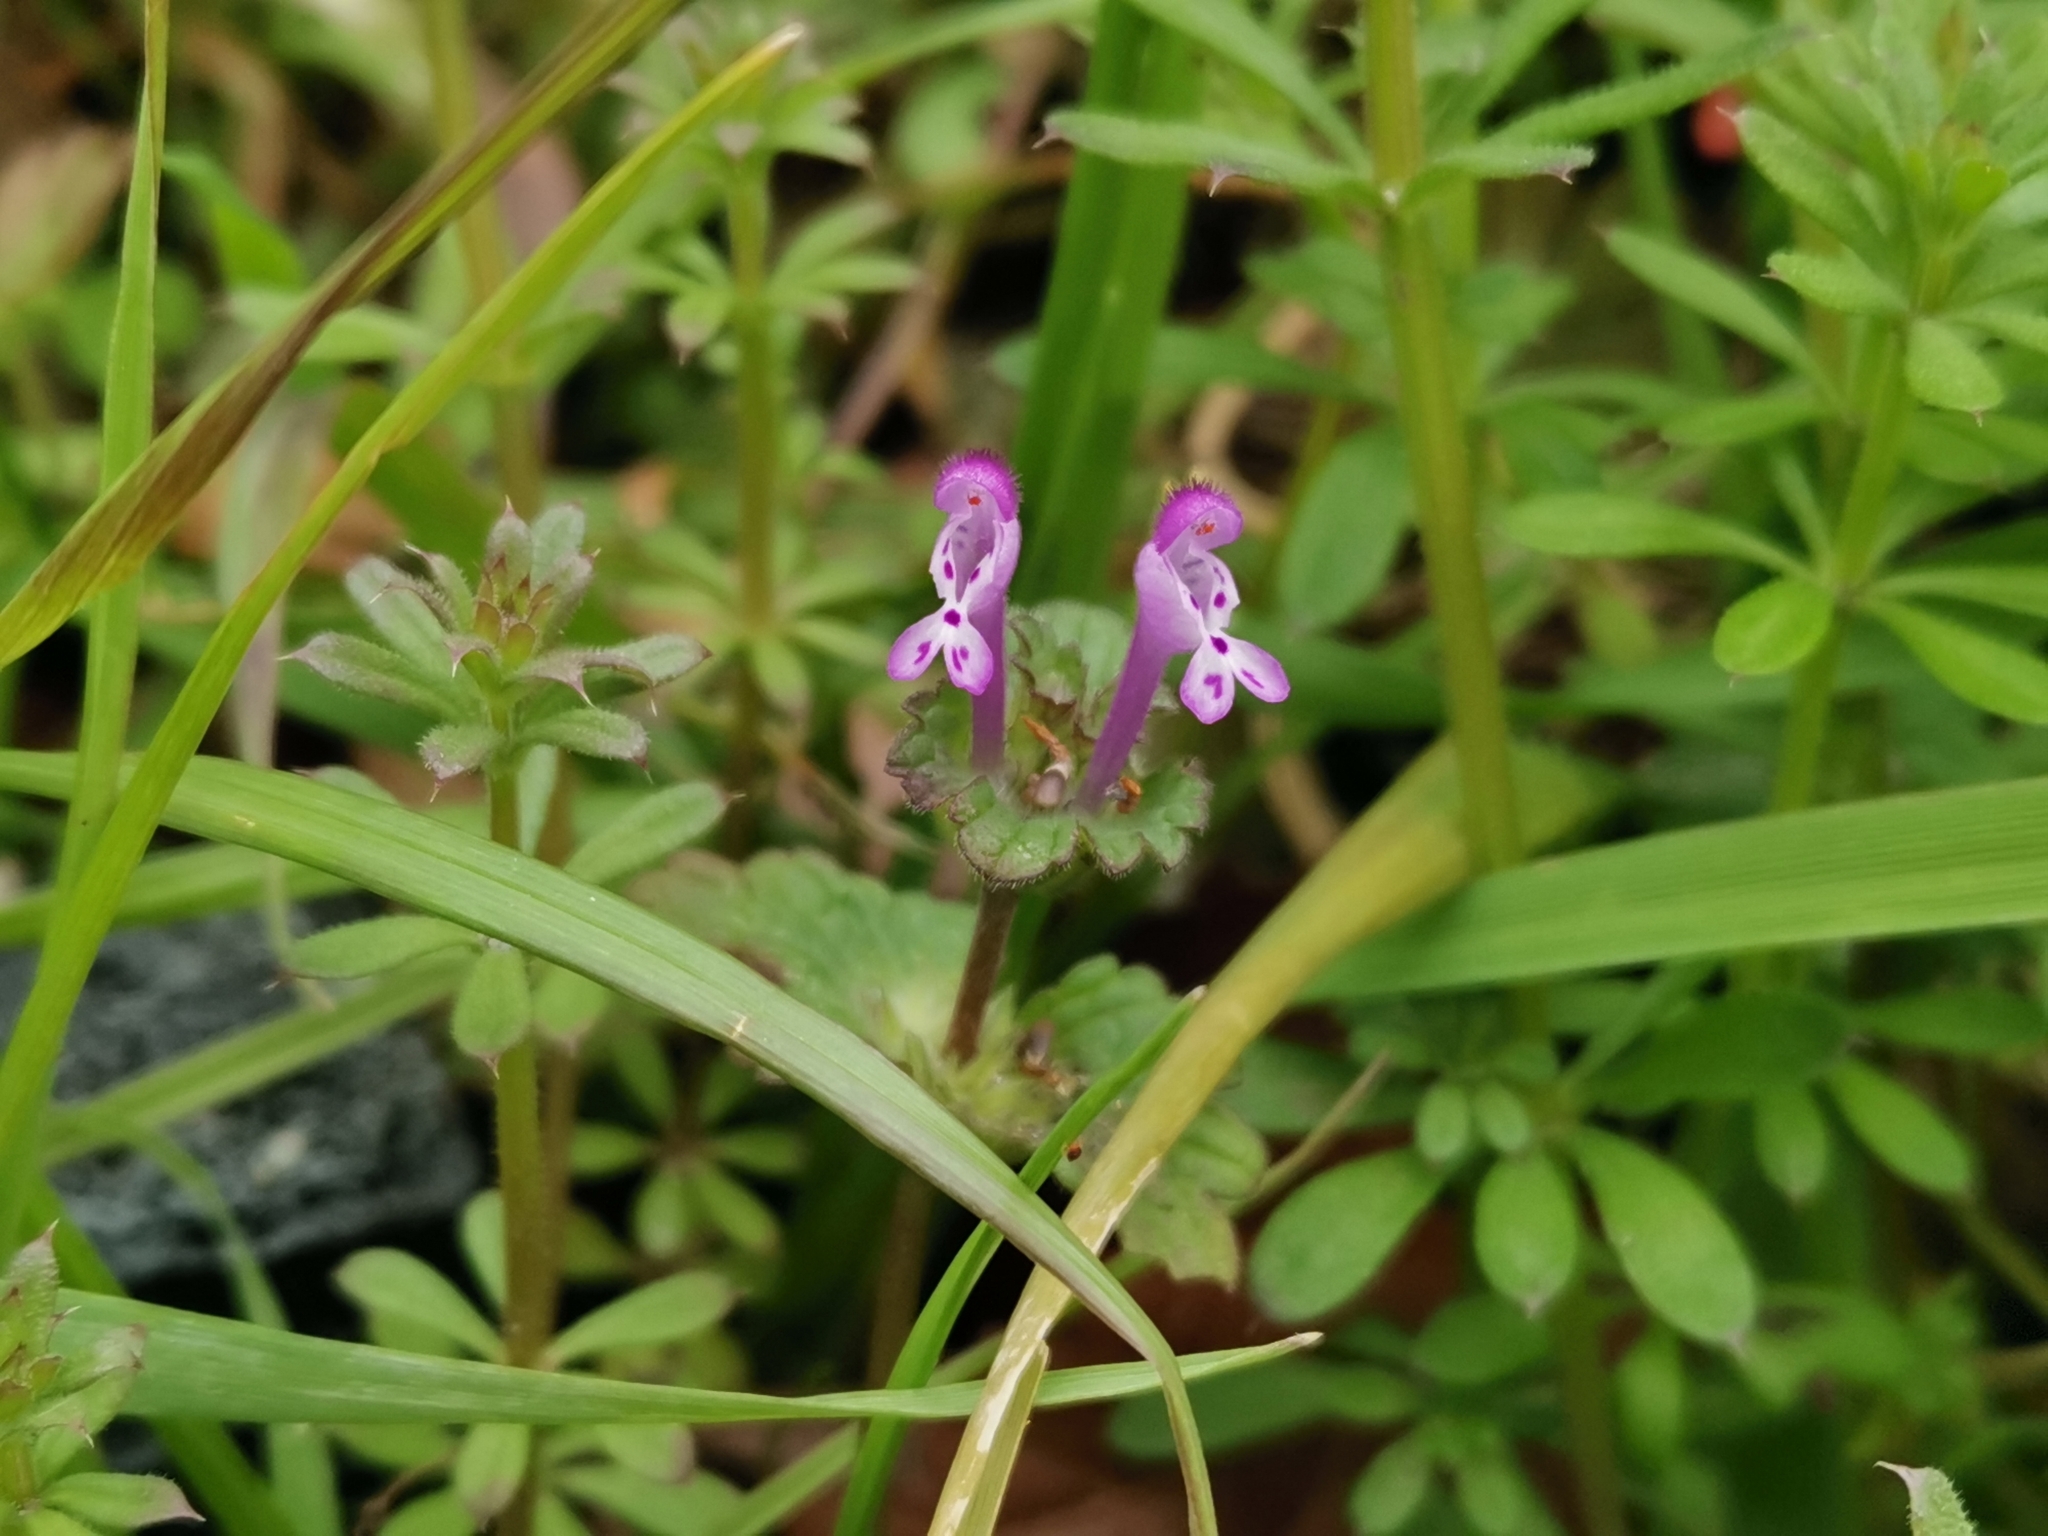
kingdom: Plantae
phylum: Tracheophyta
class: Magnoliopsida
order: Lamiales
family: Lamiaceae
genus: Lamium
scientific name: Lamium amplexicaule
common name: Henbit dead-nettle
